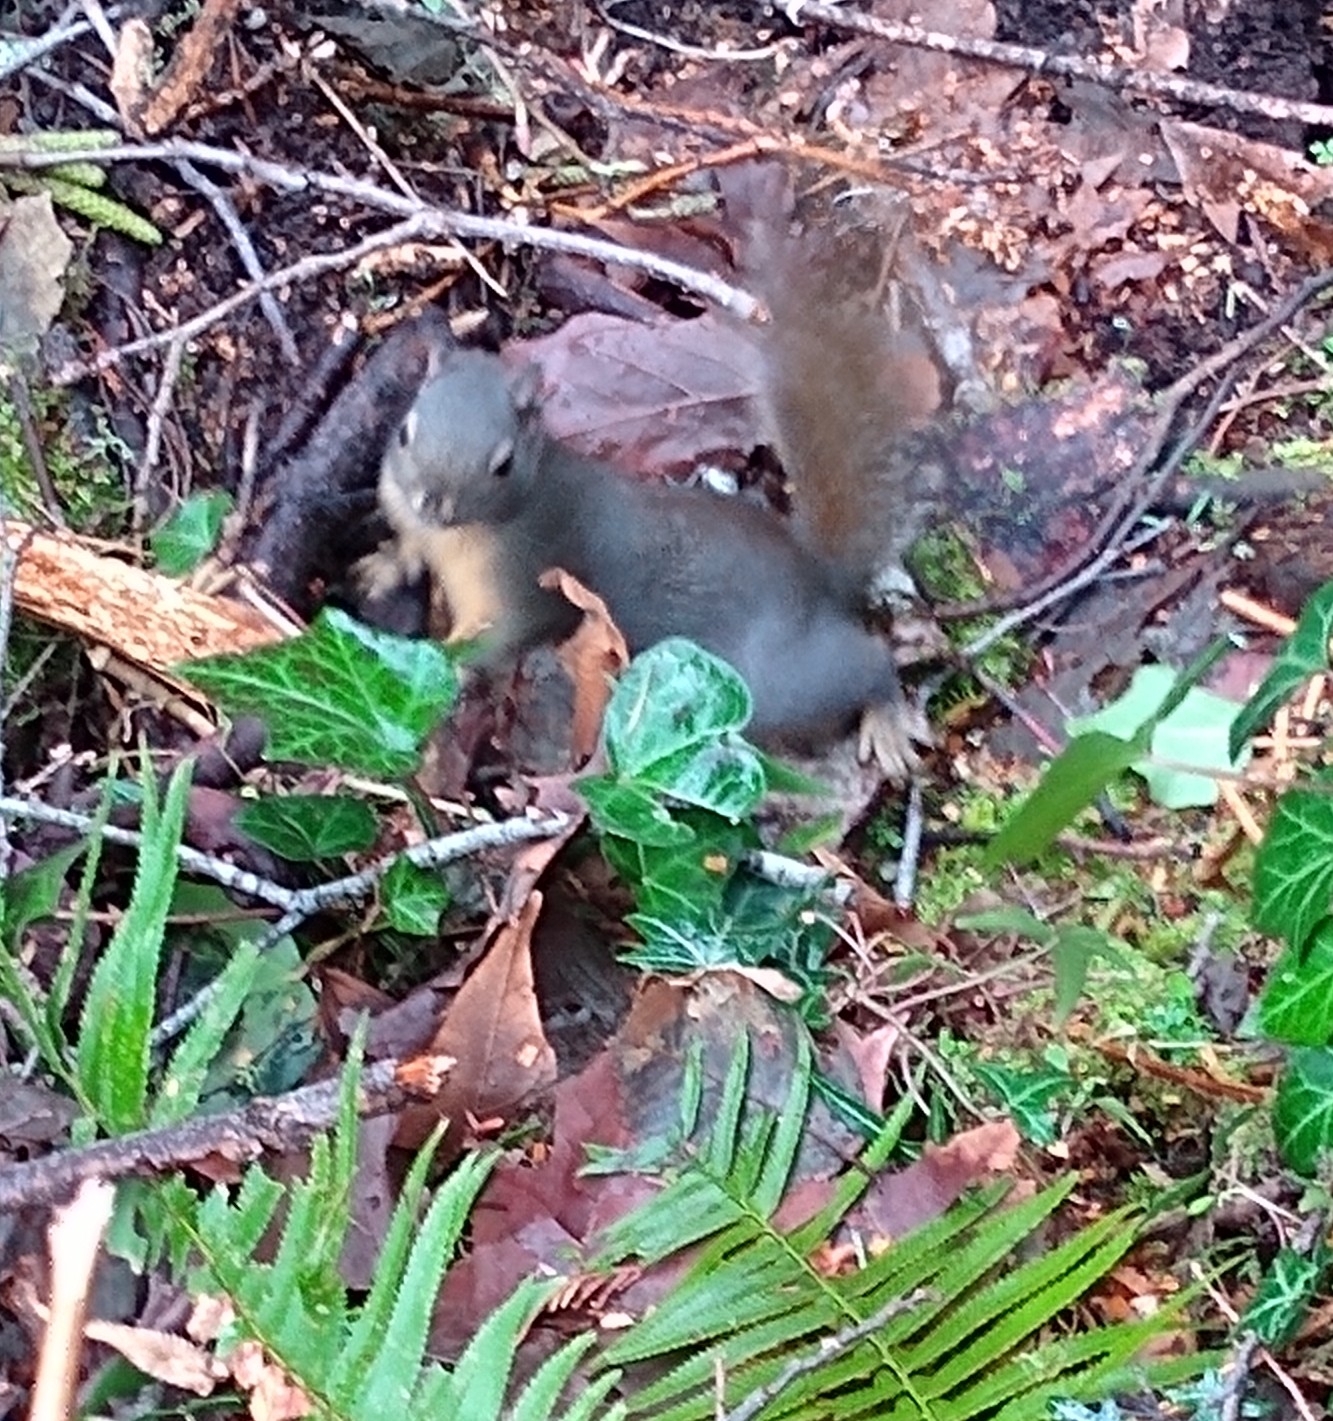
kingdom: Animalia
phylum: Chordata
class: Mammalia
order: Rodentia
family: Sciuridae
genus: Tamiasciurus
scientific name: Tamiasciurus douglasii
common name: Douglas's squirrel
